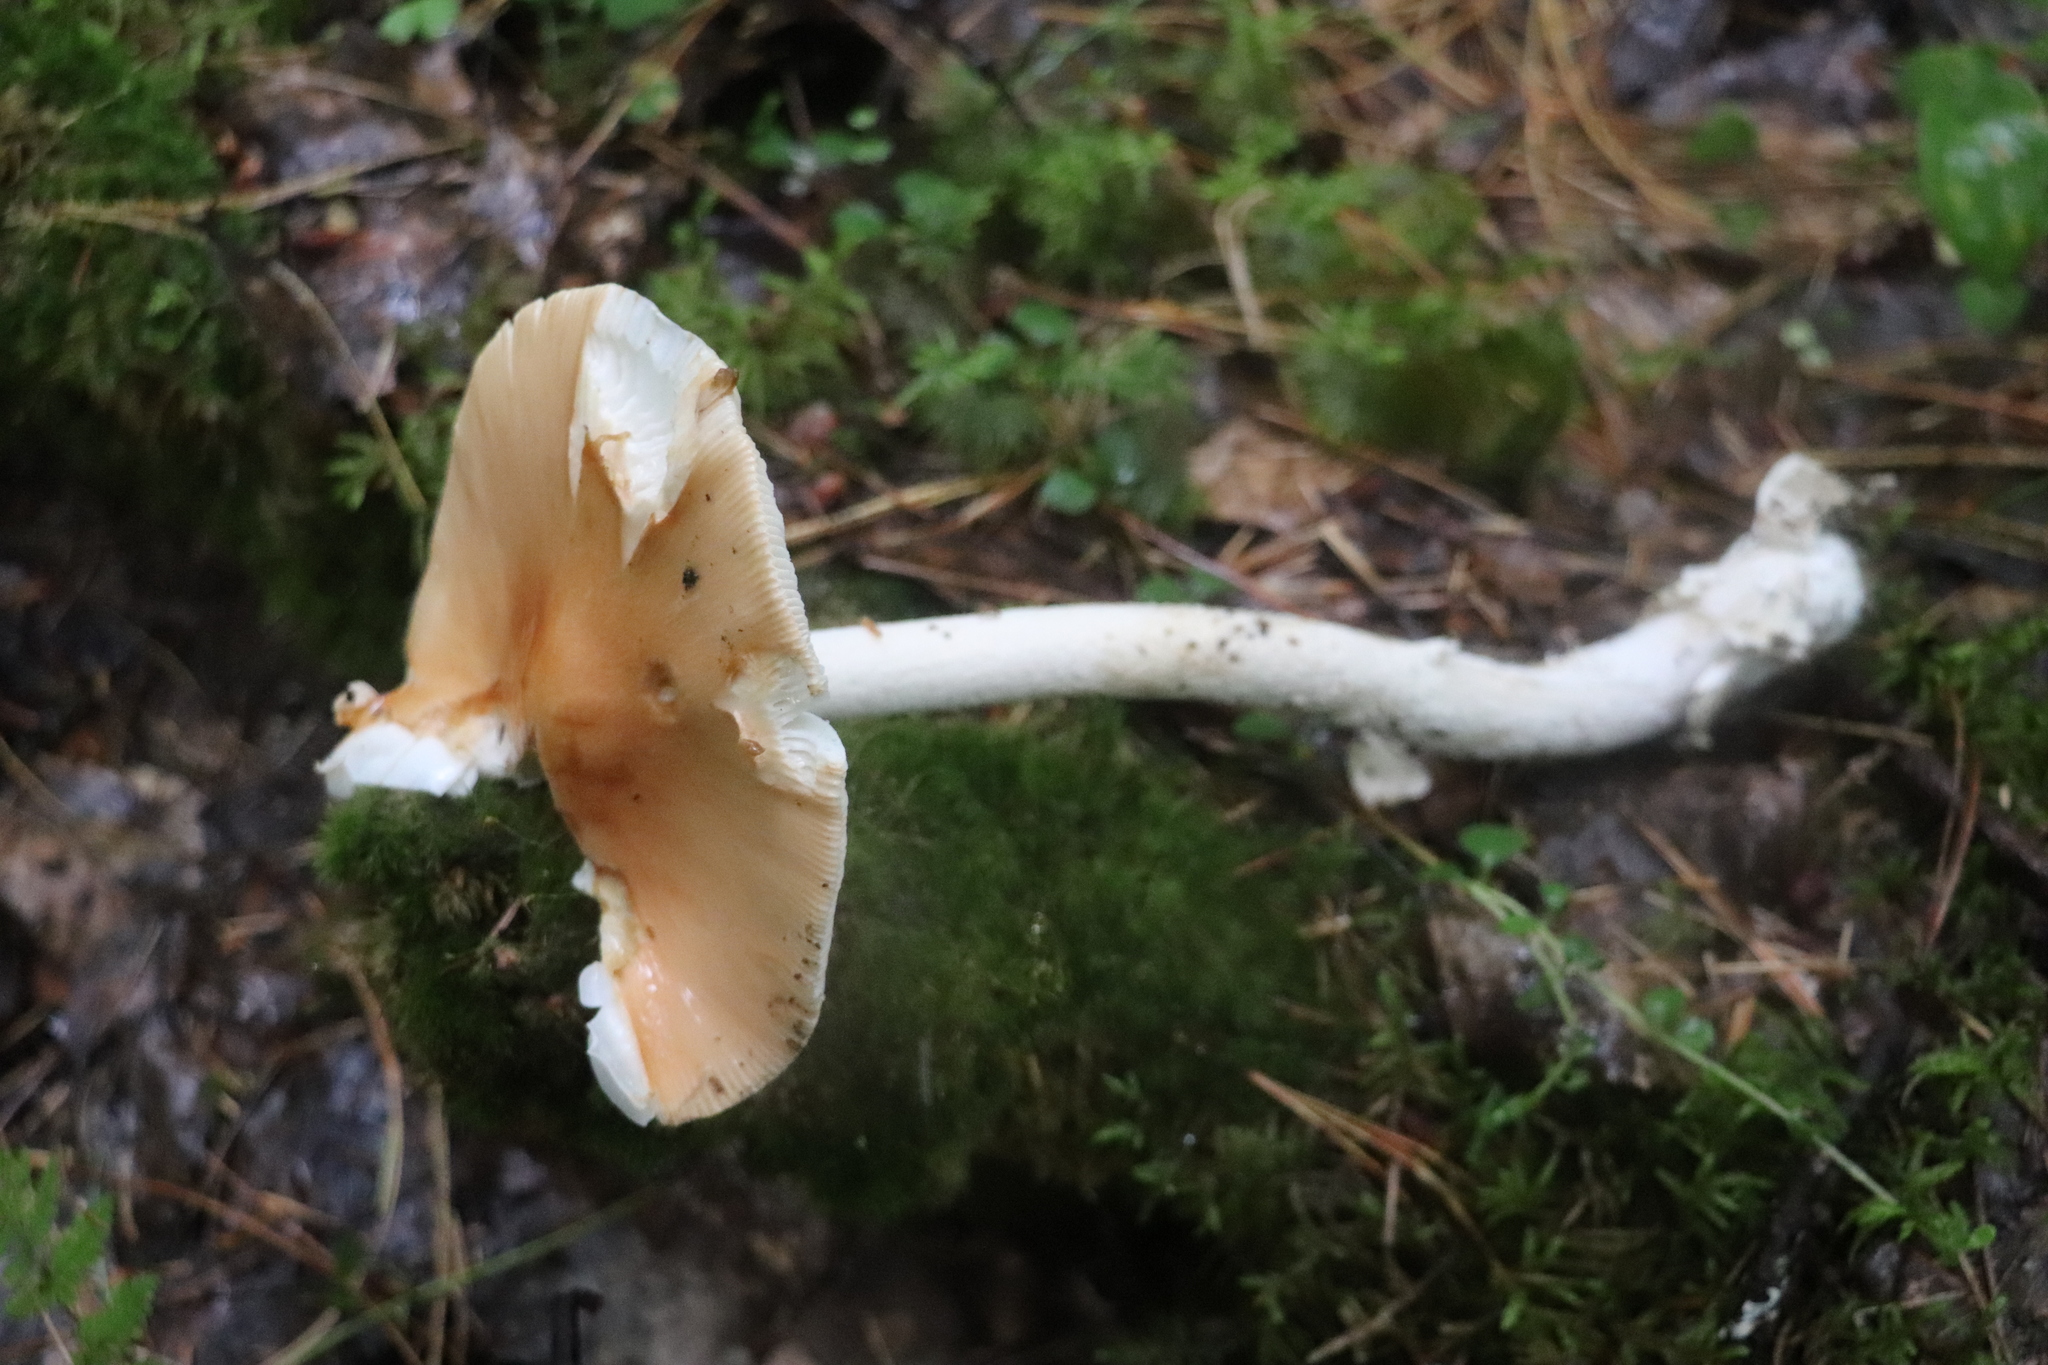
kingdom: Fungi
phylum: Basidiomycota
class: Agaricomycetes
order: Agaricales
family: Amanitaceae
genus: Amanita
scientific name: Amanita crocea
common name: Orange grisette
